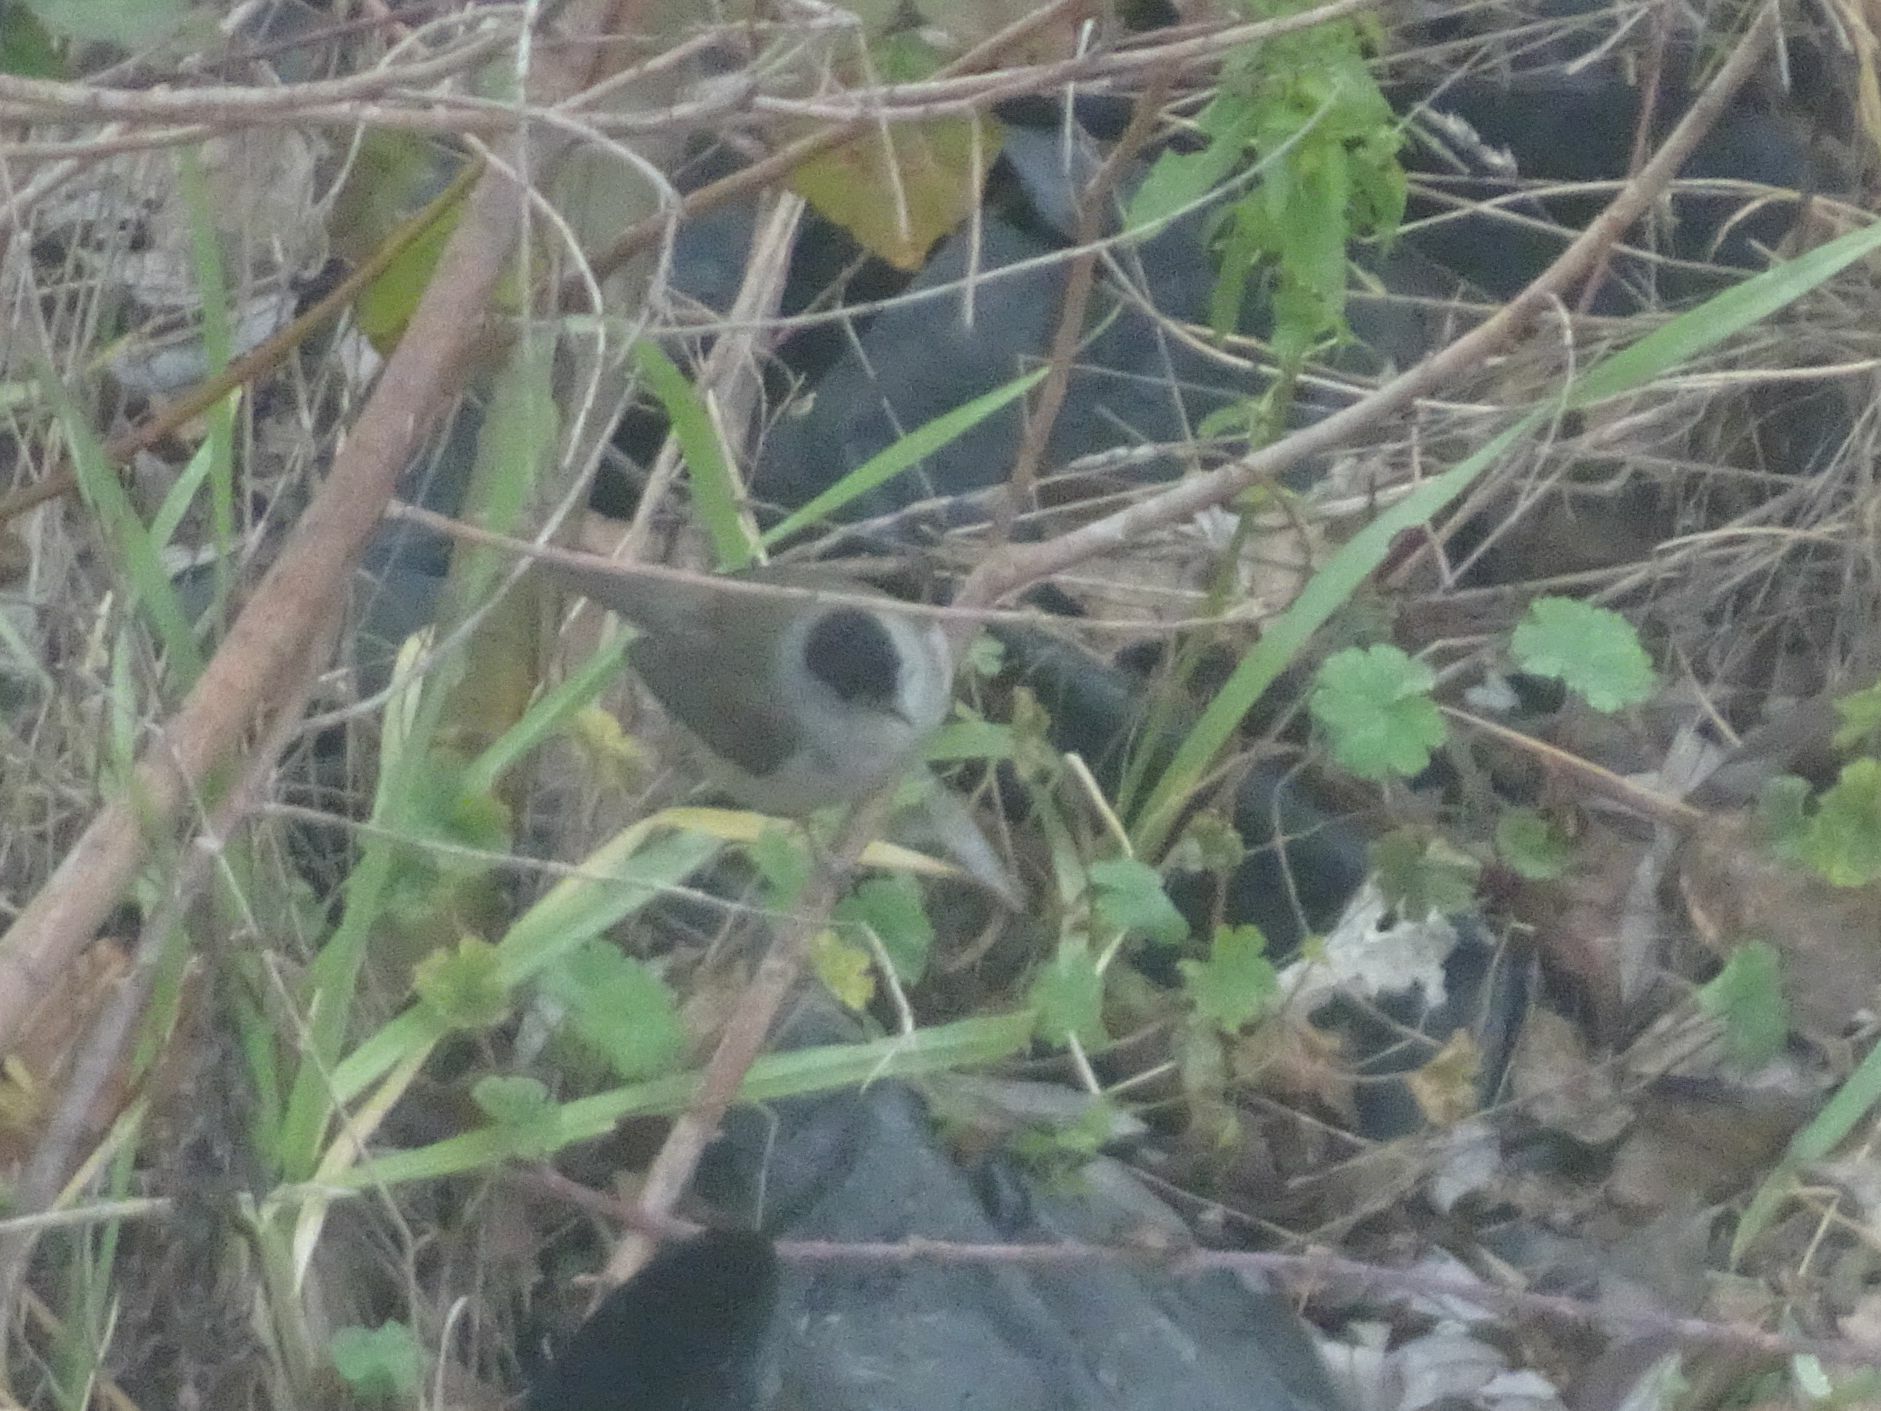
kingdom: Animalia
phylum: Chordata
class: Aves
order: Passeriformes
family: Sylviidae
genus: Sylvia
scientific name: Sylvia atricapilla
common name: Eurasian blackcap
